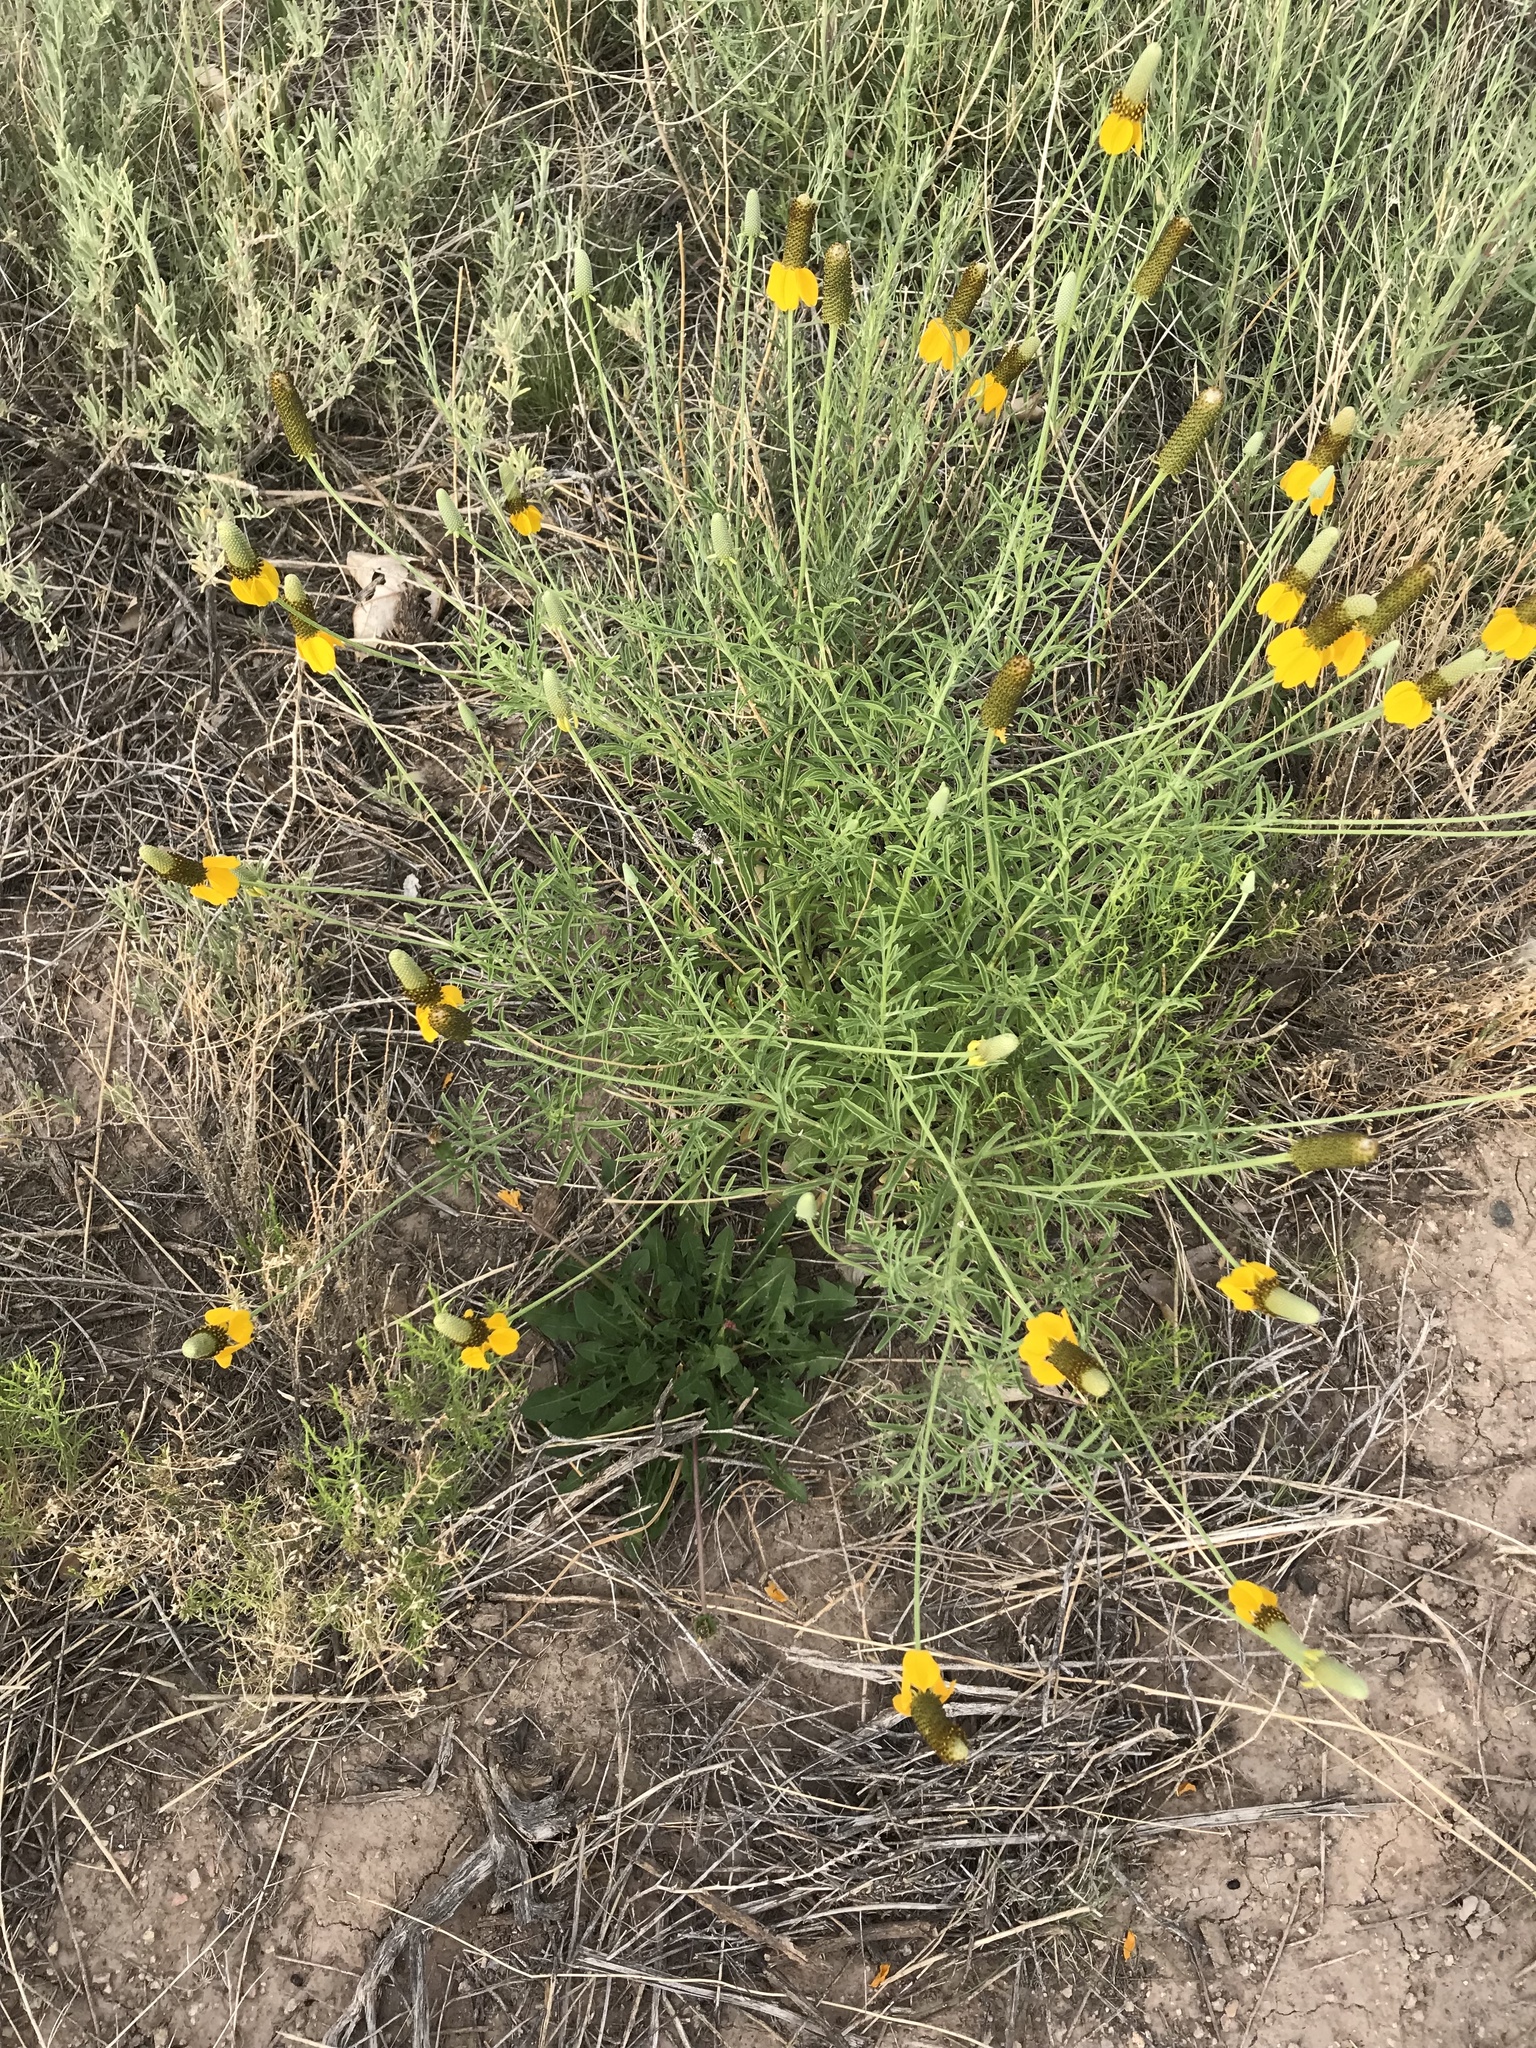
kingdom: Plantae
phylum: Tracheophyta
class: Magnoliopsida
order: Asterales
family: Asteraceae
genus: Ratibida
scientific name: Ratibida columnifera
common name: Prairie coneflower
